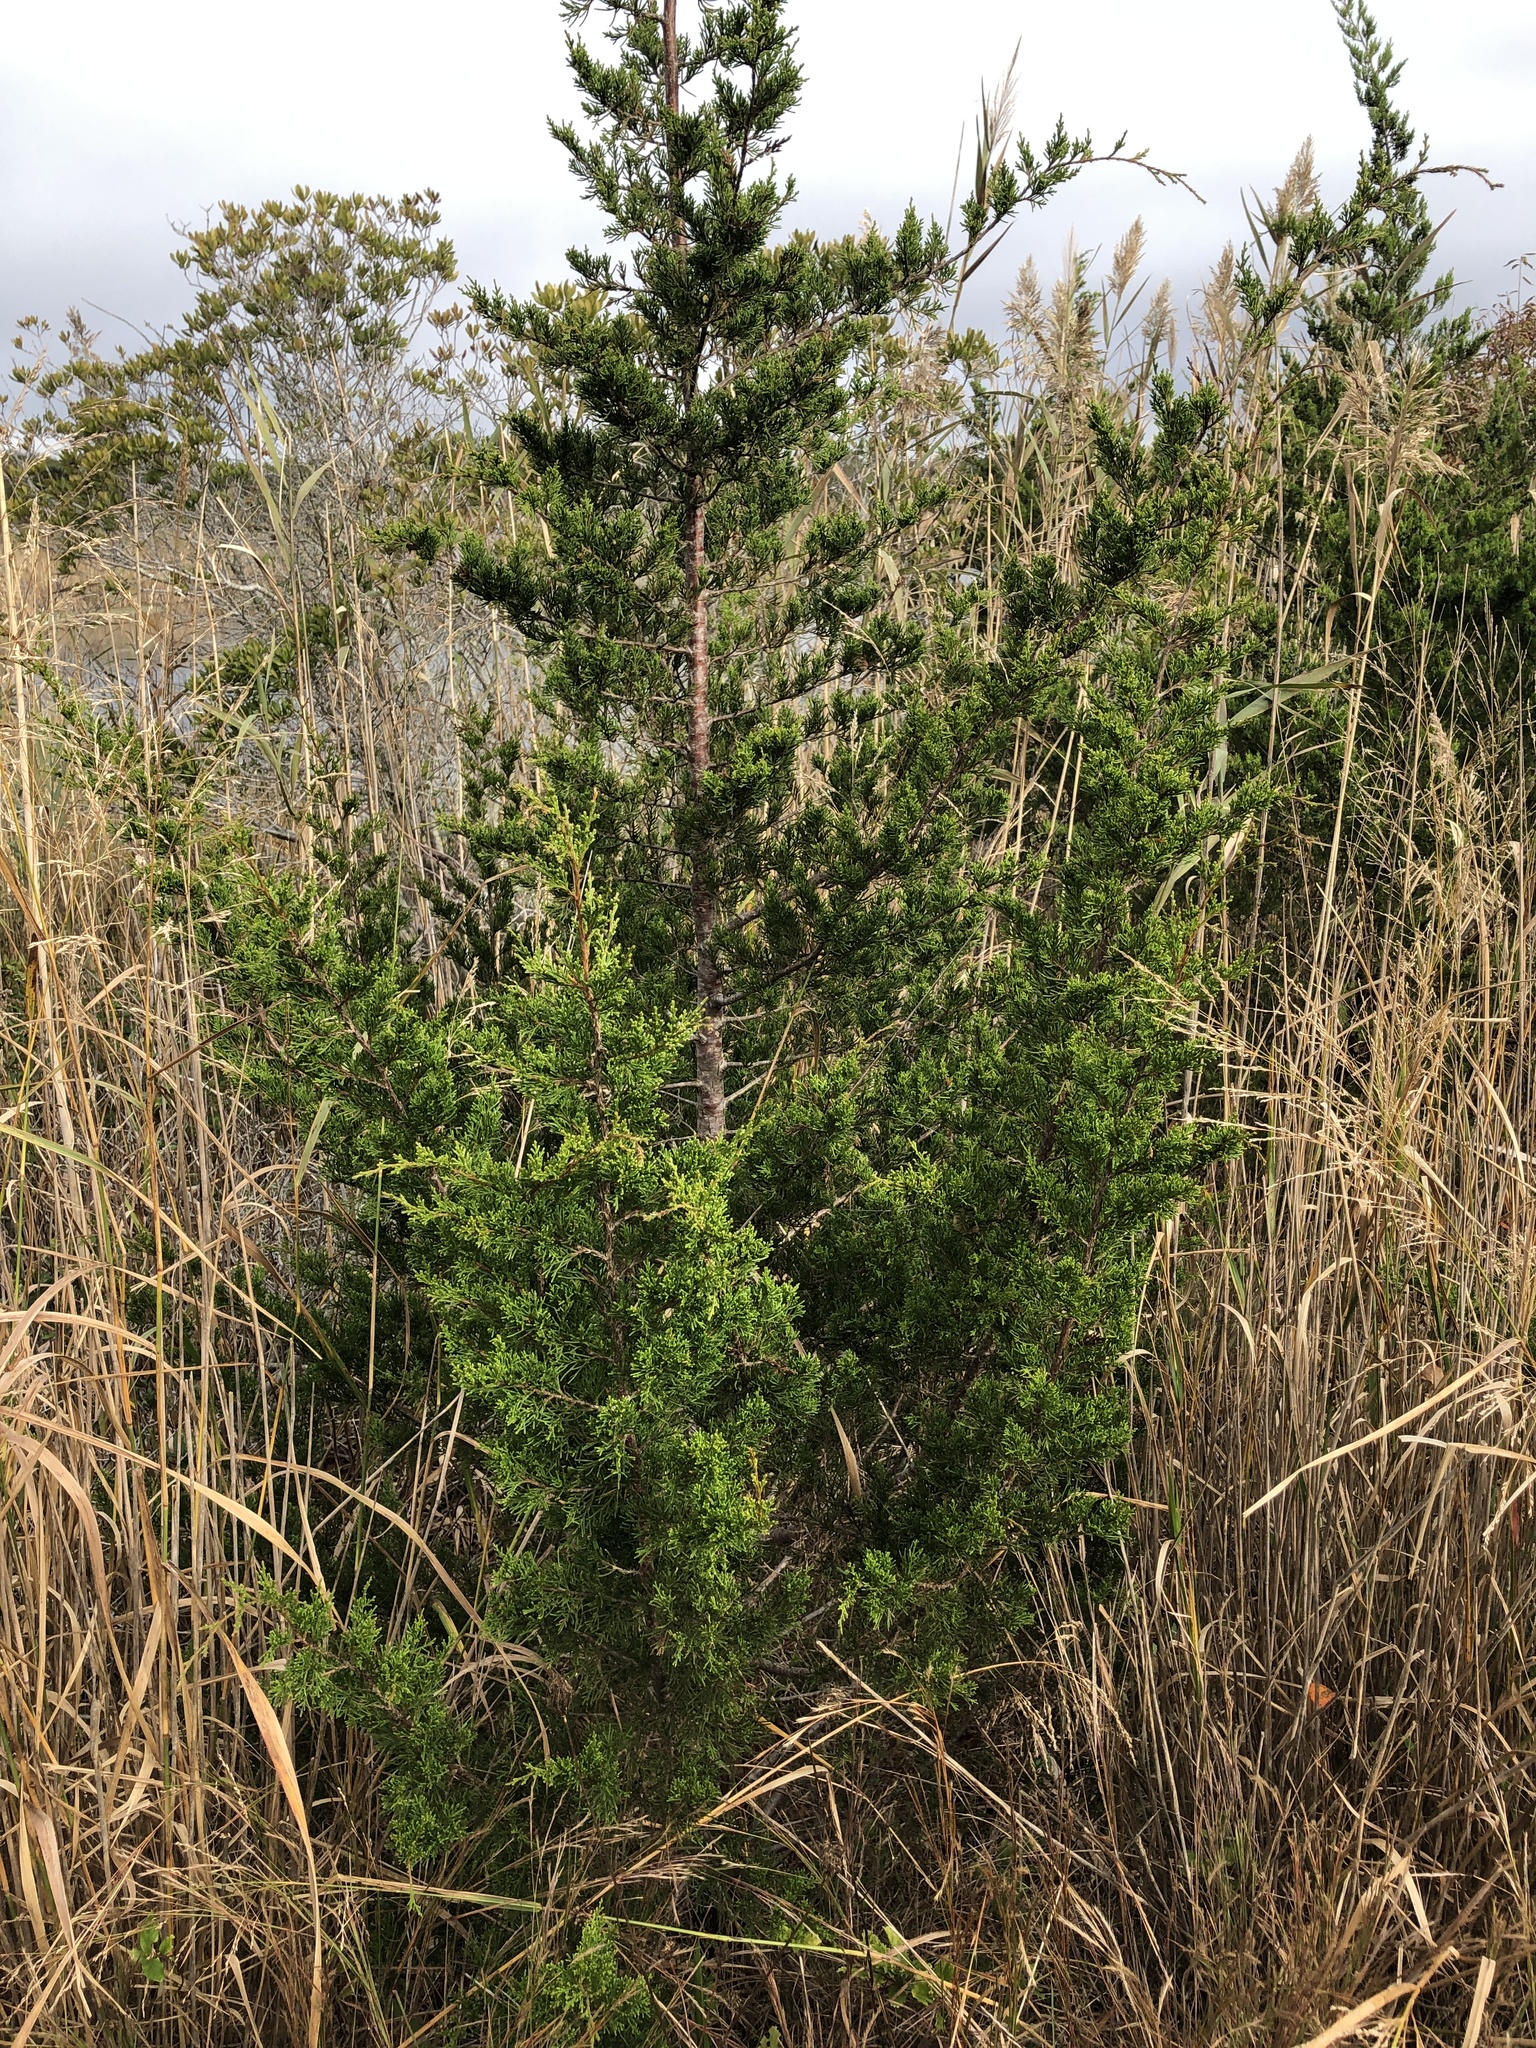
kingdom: Plantae
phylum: Tracheophyta
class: Pinopsida
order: Pinales
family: Cupressaceae
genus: Juniperus
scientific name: Juniperus virginiana
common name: Red juniper
